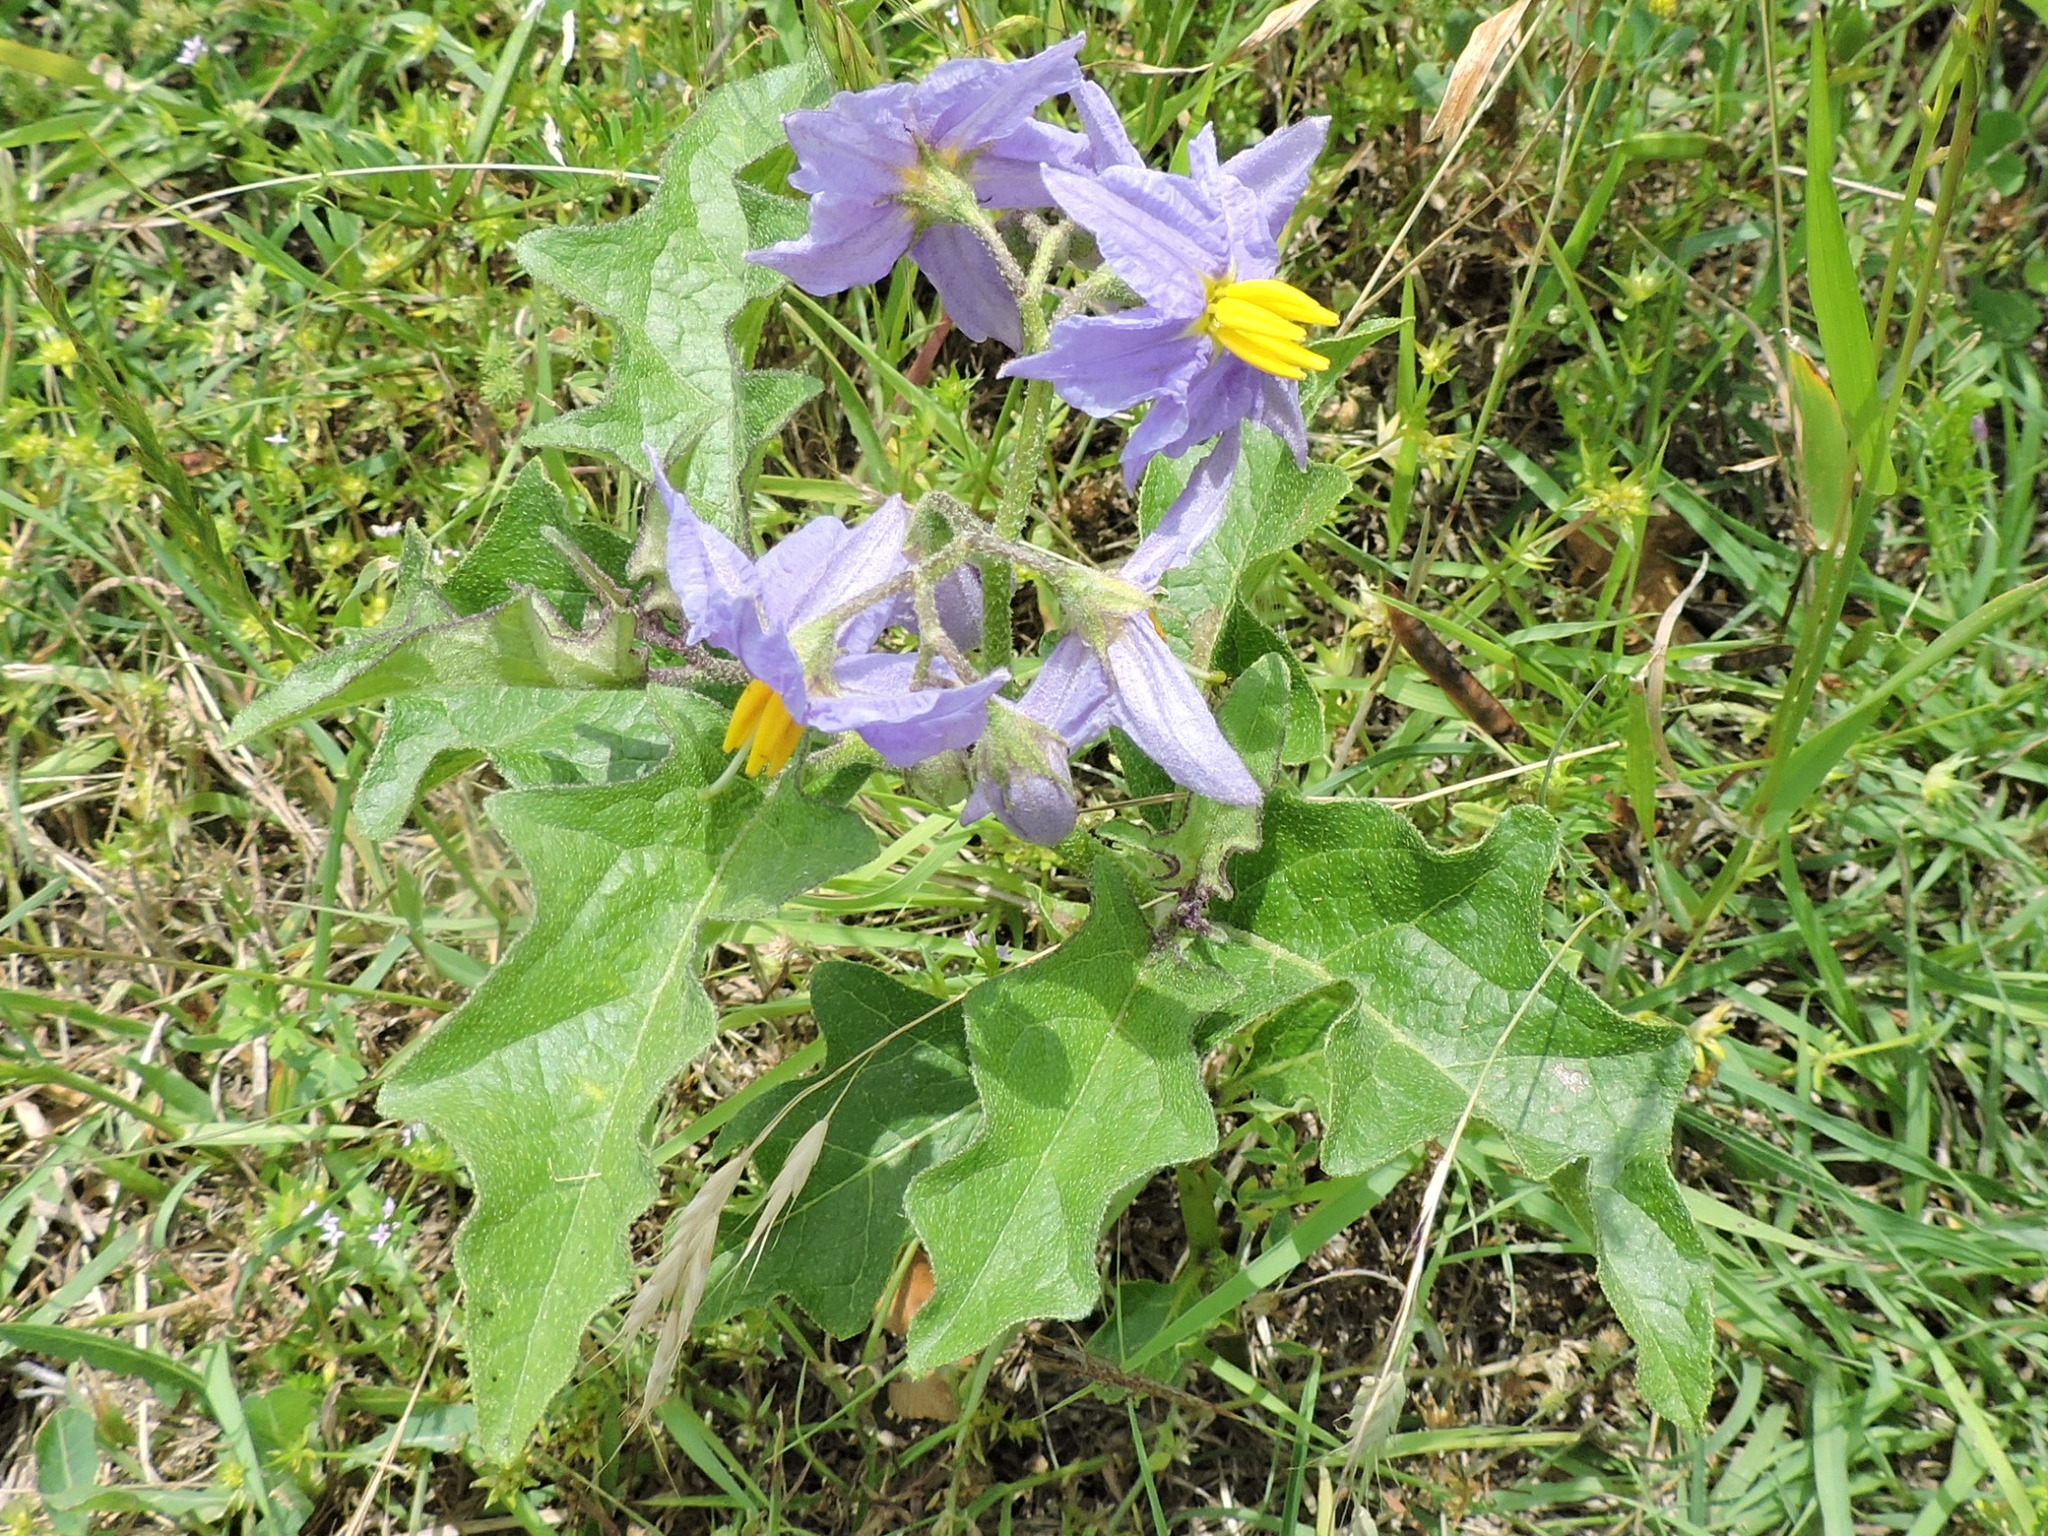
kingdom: Plantae
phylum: Tracheophyta
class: Magnoliopsida
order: Solanales
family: Solanaceae
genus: Solanum
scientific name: Solanum dimidiatum
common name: Carolina horse-nettle
